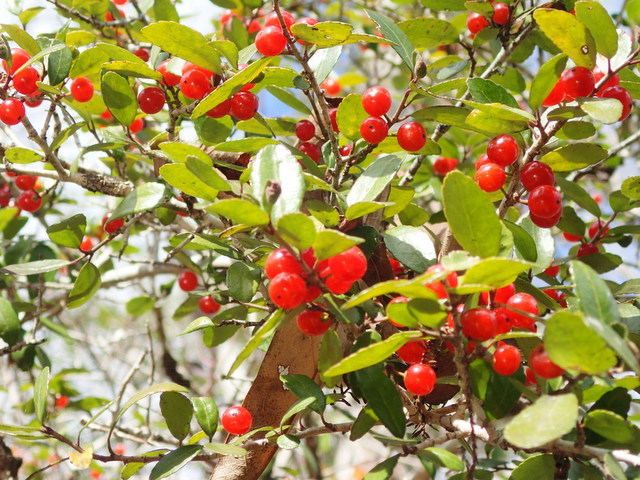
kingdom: Plantae
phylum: Tracheophyta
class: Magnoliopsida
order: Aquifoliales
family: Aquifoliaceae
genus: Ilex
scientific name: Ilex vomitoria
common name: Yaupon holly
